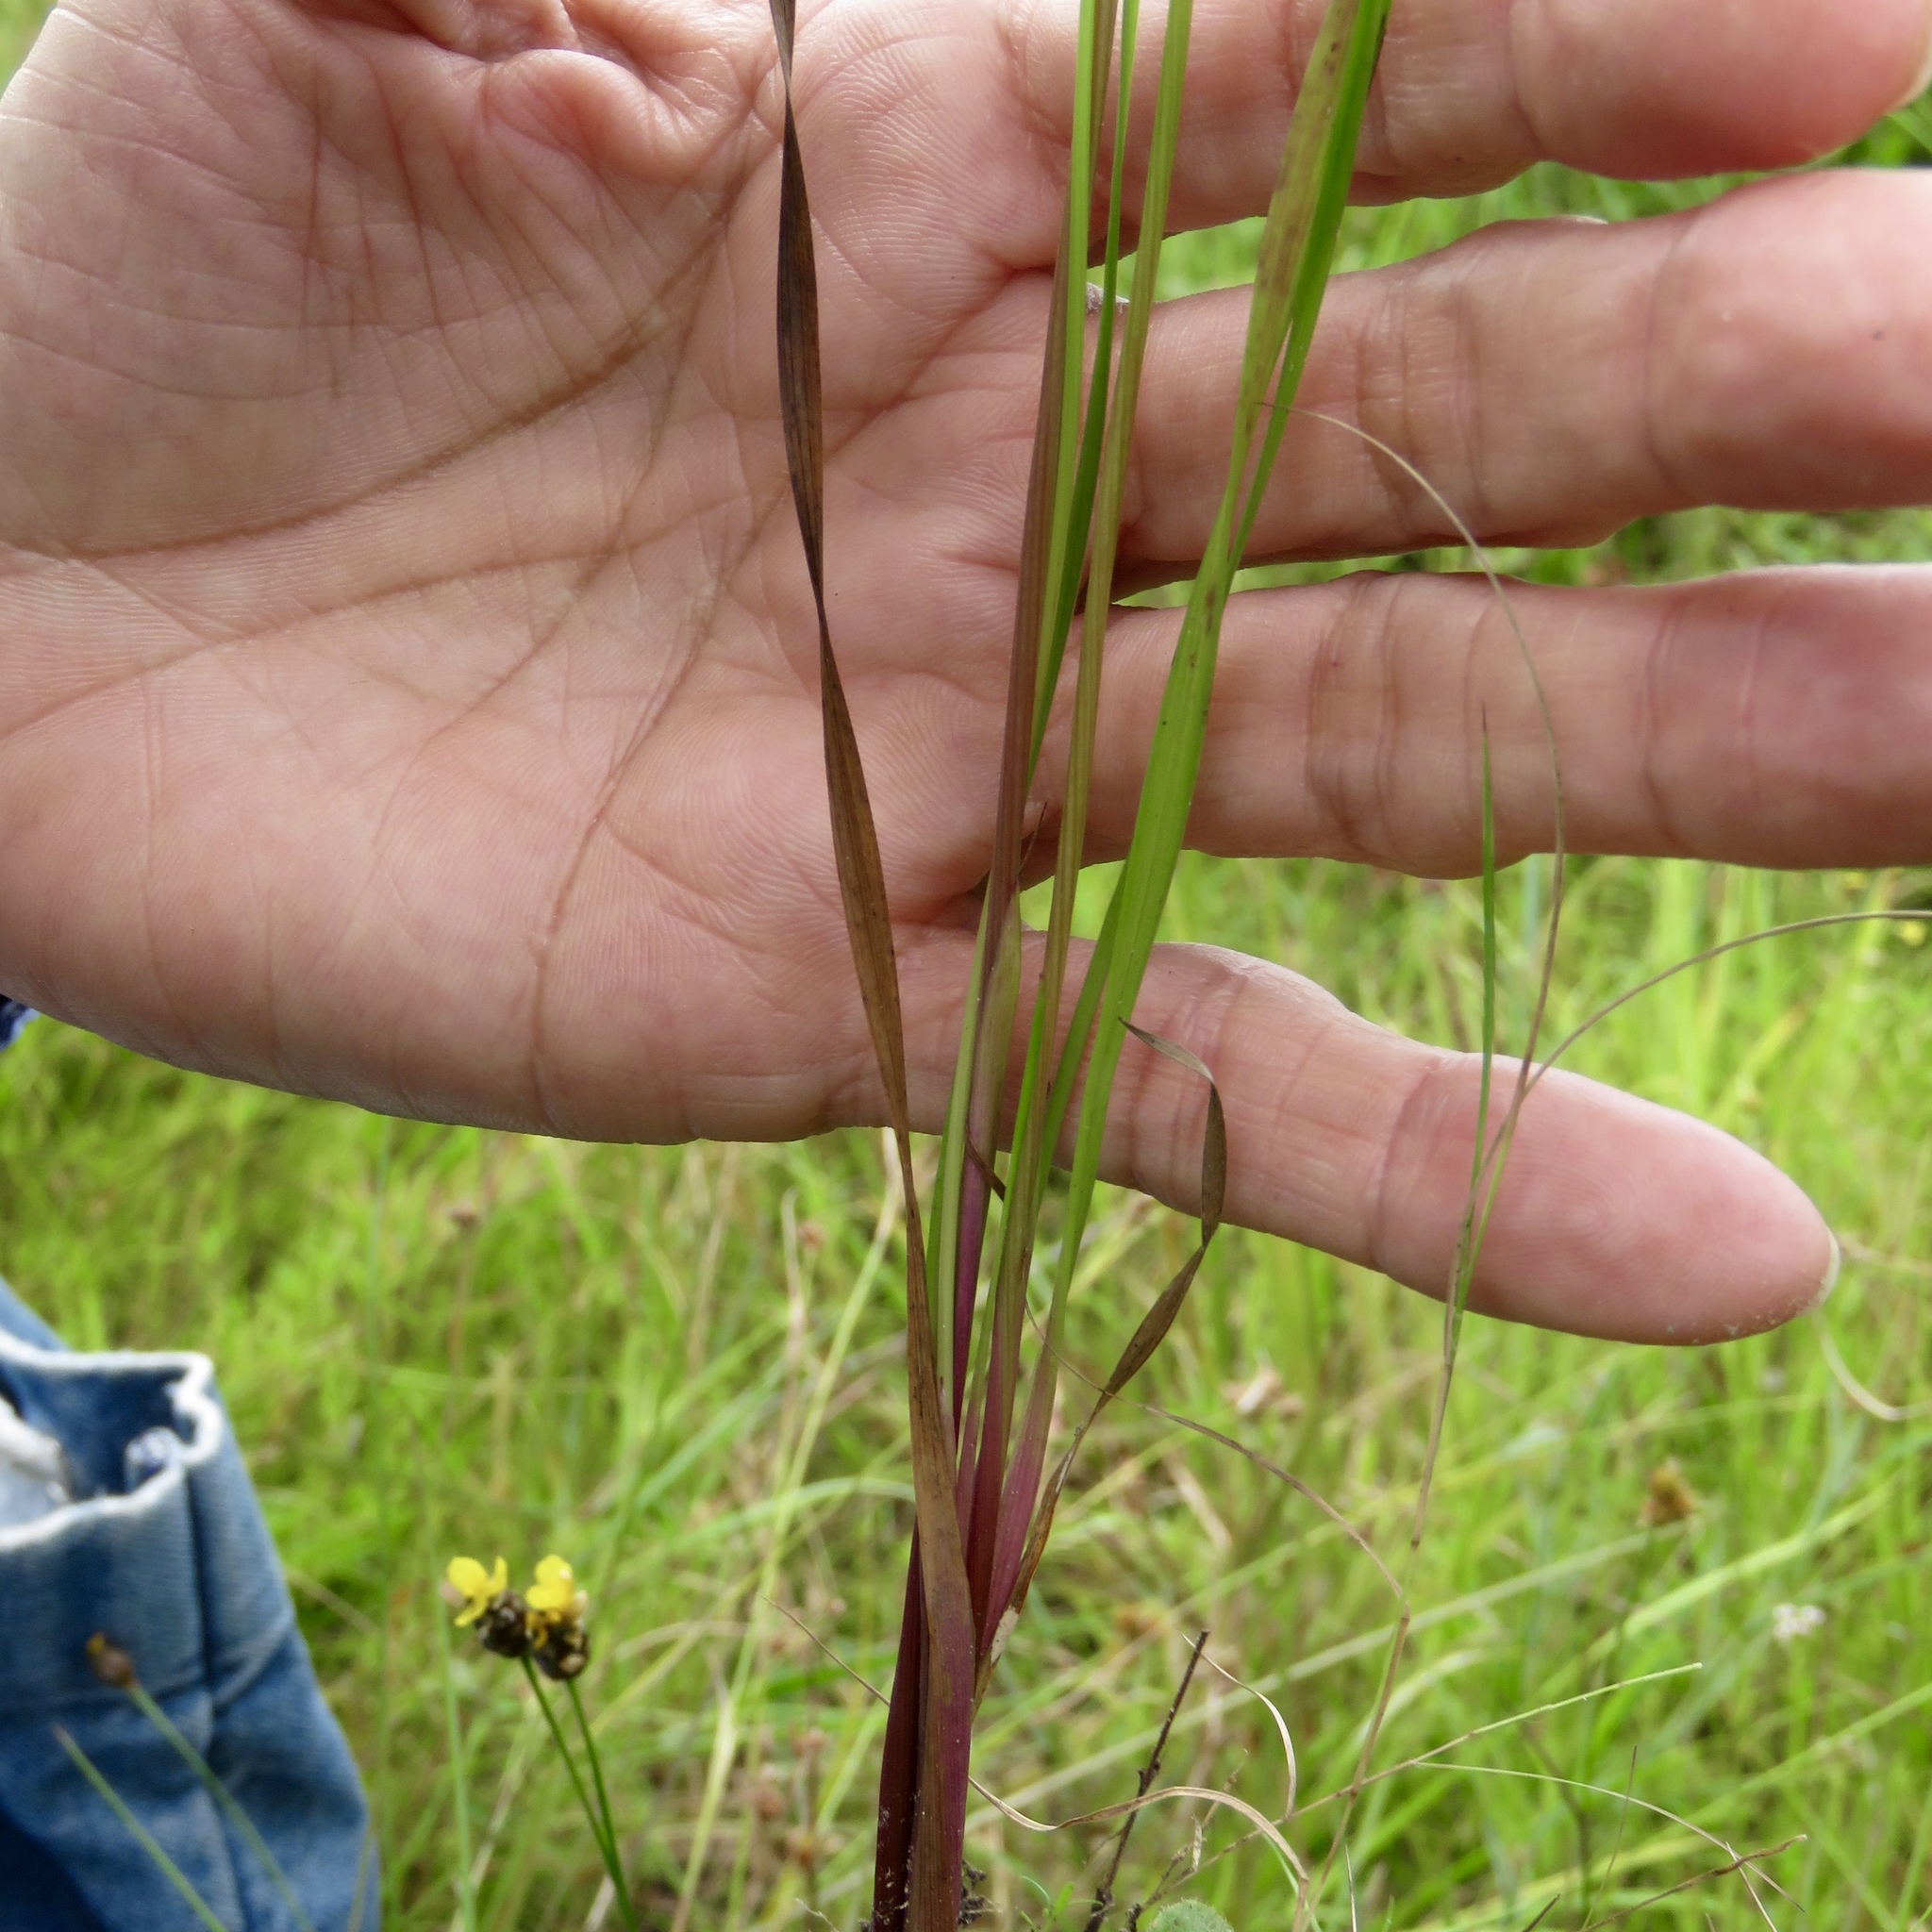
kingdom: Plantae
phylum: Tracheophyta
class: Liliopsida
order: Poales
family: Xyridaceae
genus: Xyris
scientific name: Xyris torta
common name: Common yelloweyed grass
